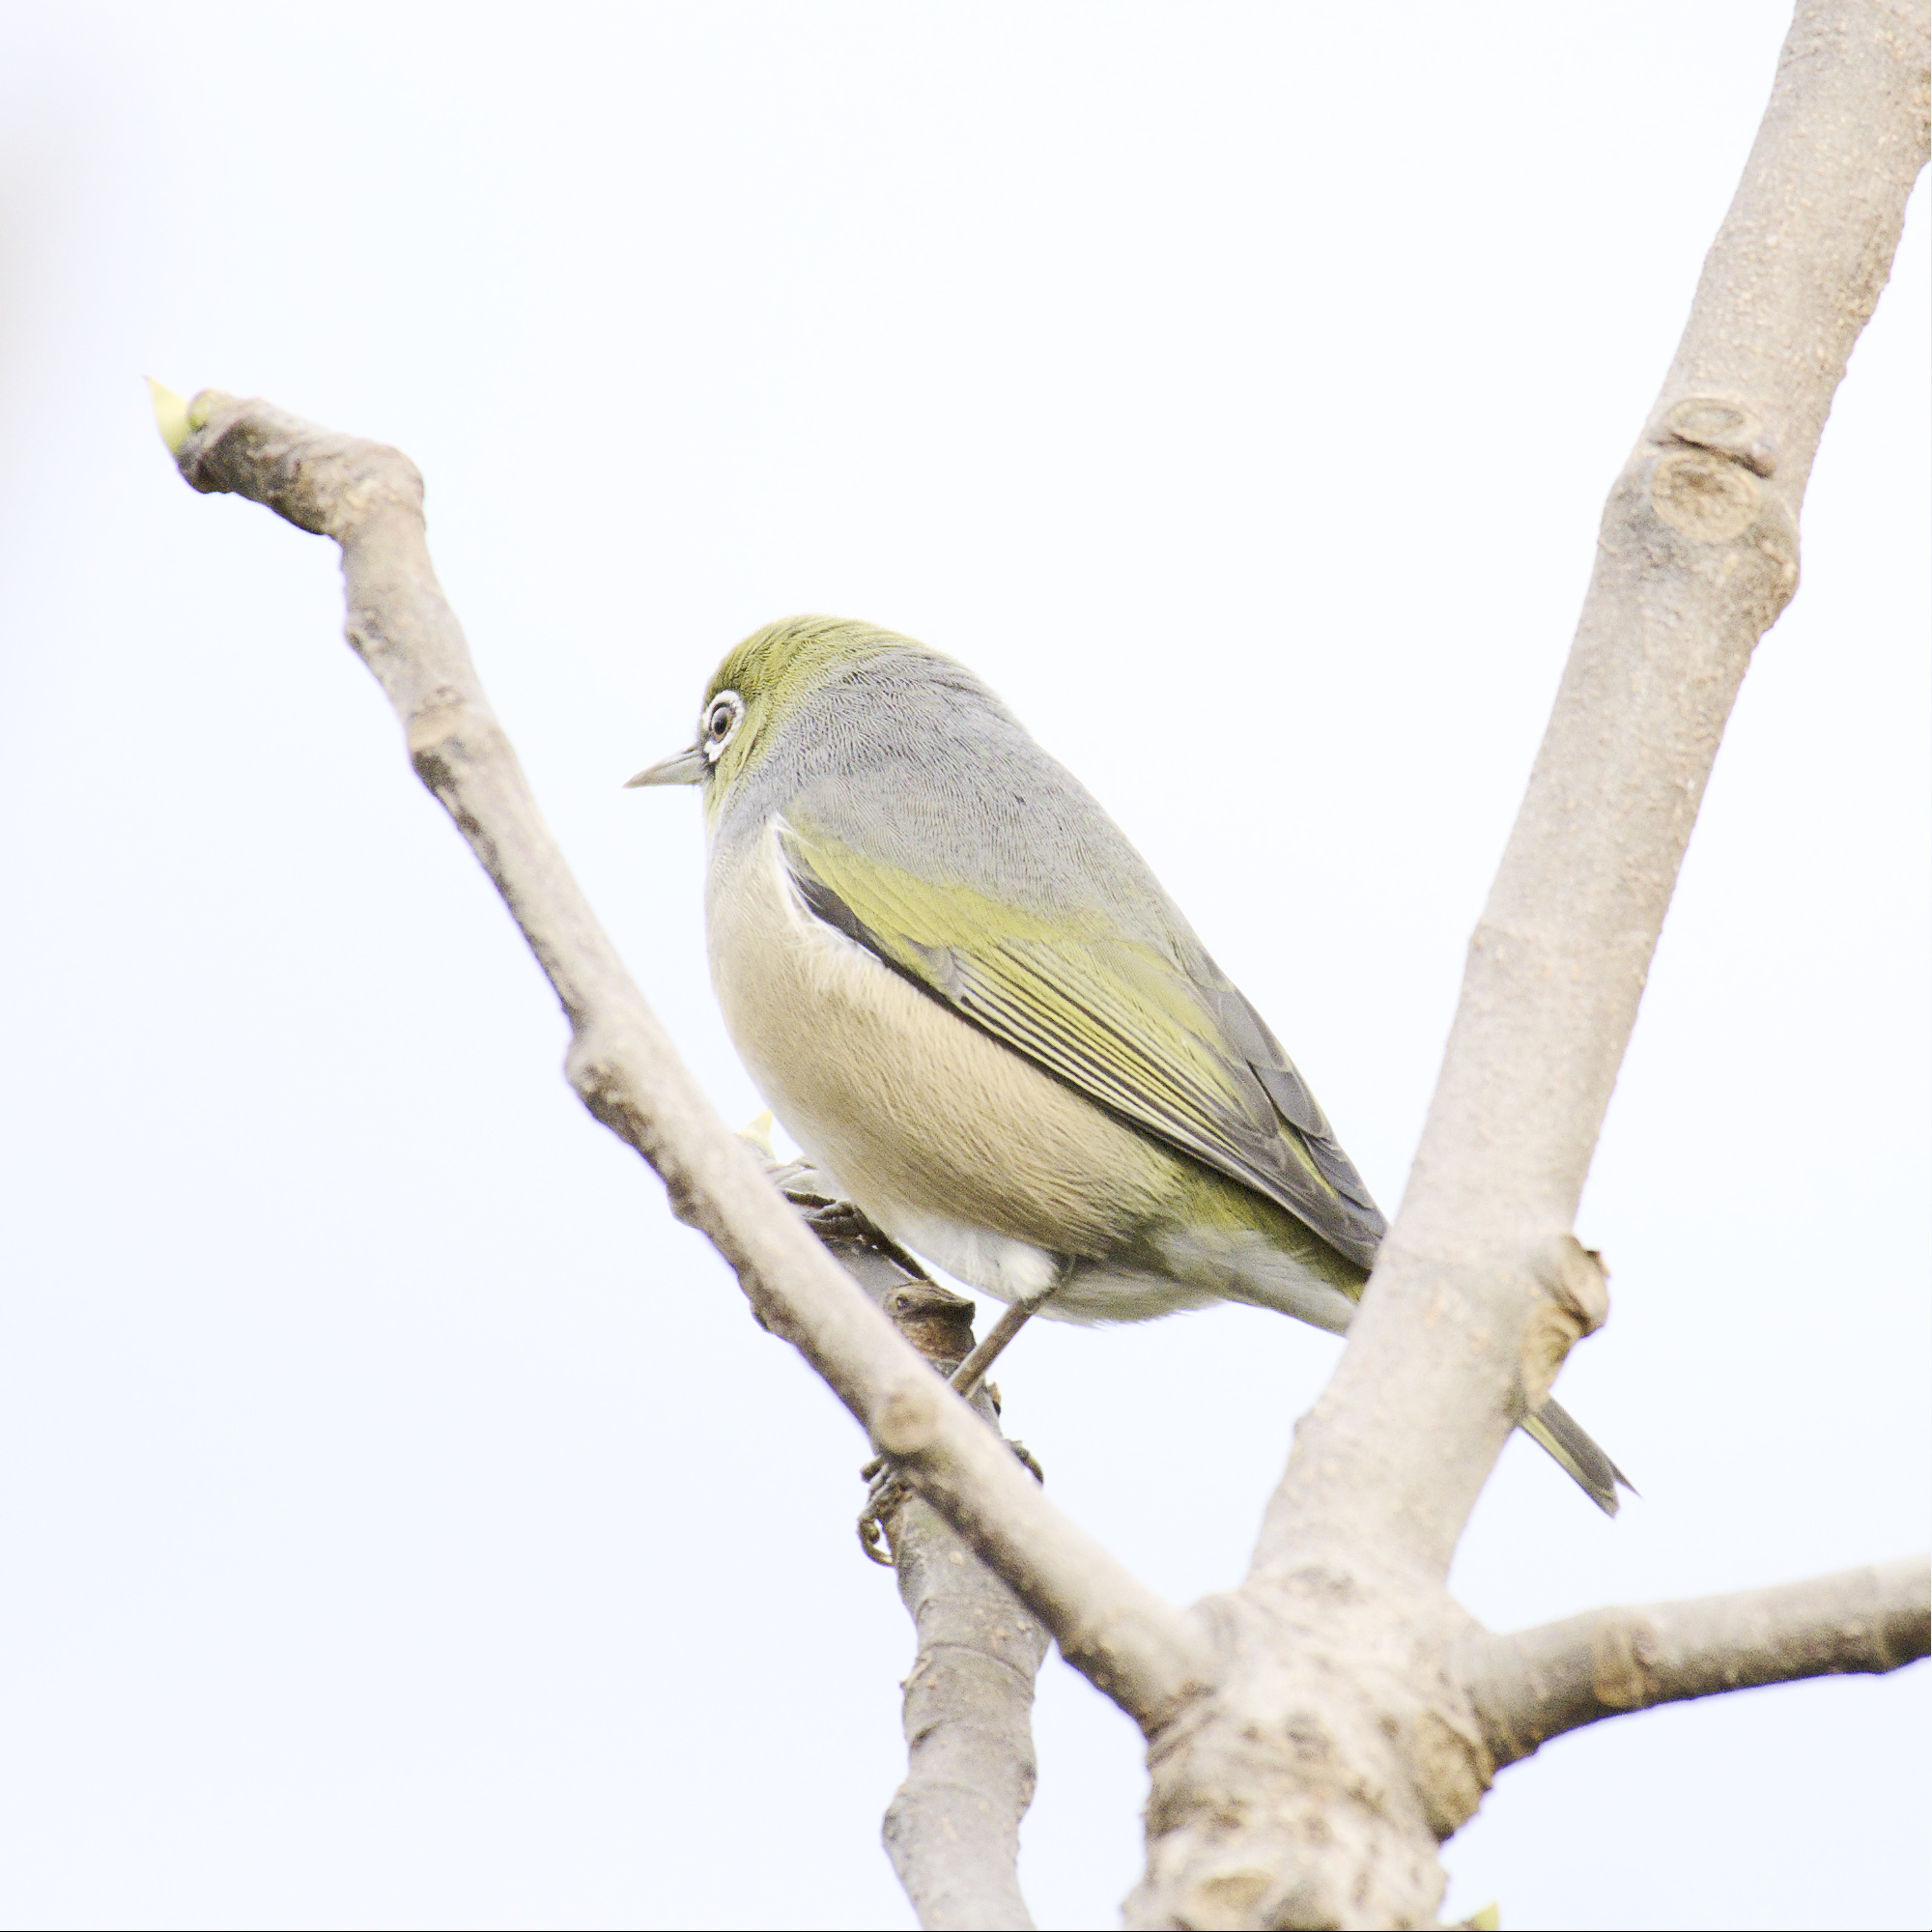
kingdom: Animalia
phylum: Chordata
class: Aves
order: Passeriformes
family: Zosteropidae
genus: Zosterops
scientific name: Zosterops lateralis
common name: Silvereye
